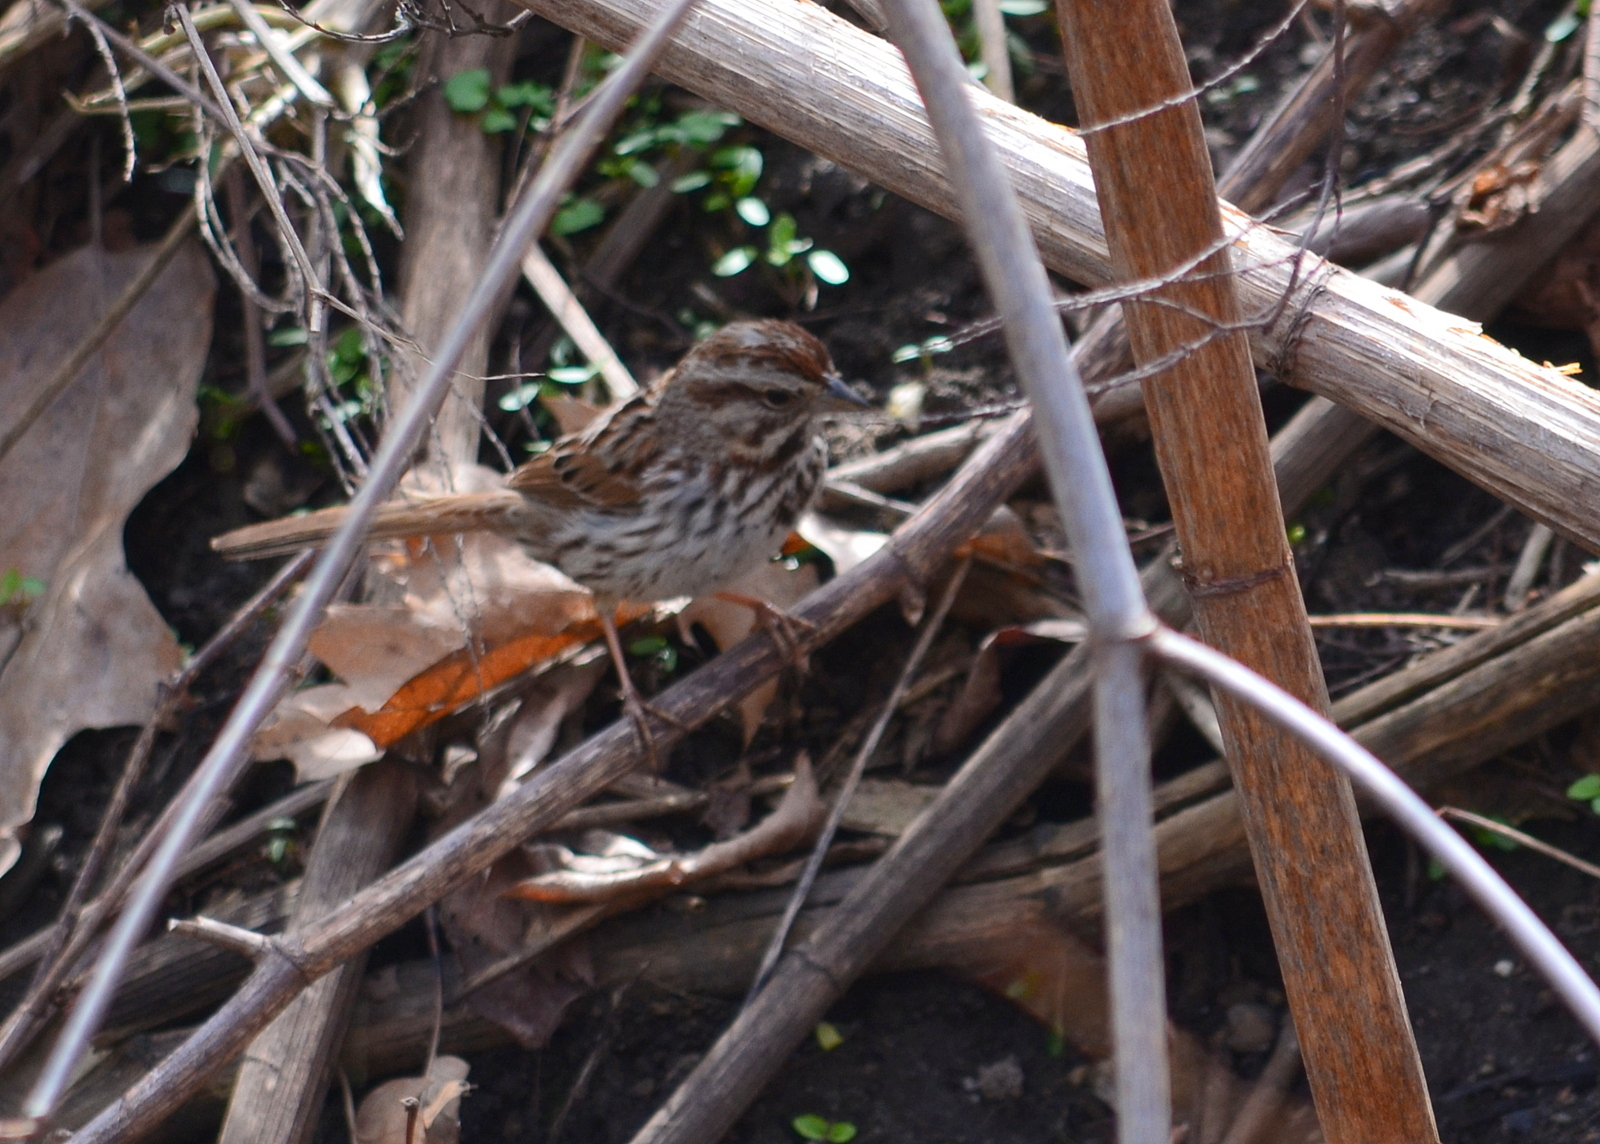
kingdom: Animalia
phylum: Chordata
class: Aves
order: Passeriformes
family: Passerellidae
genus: Melospiza
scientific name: Melospiza melodia
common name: Song sparrow
